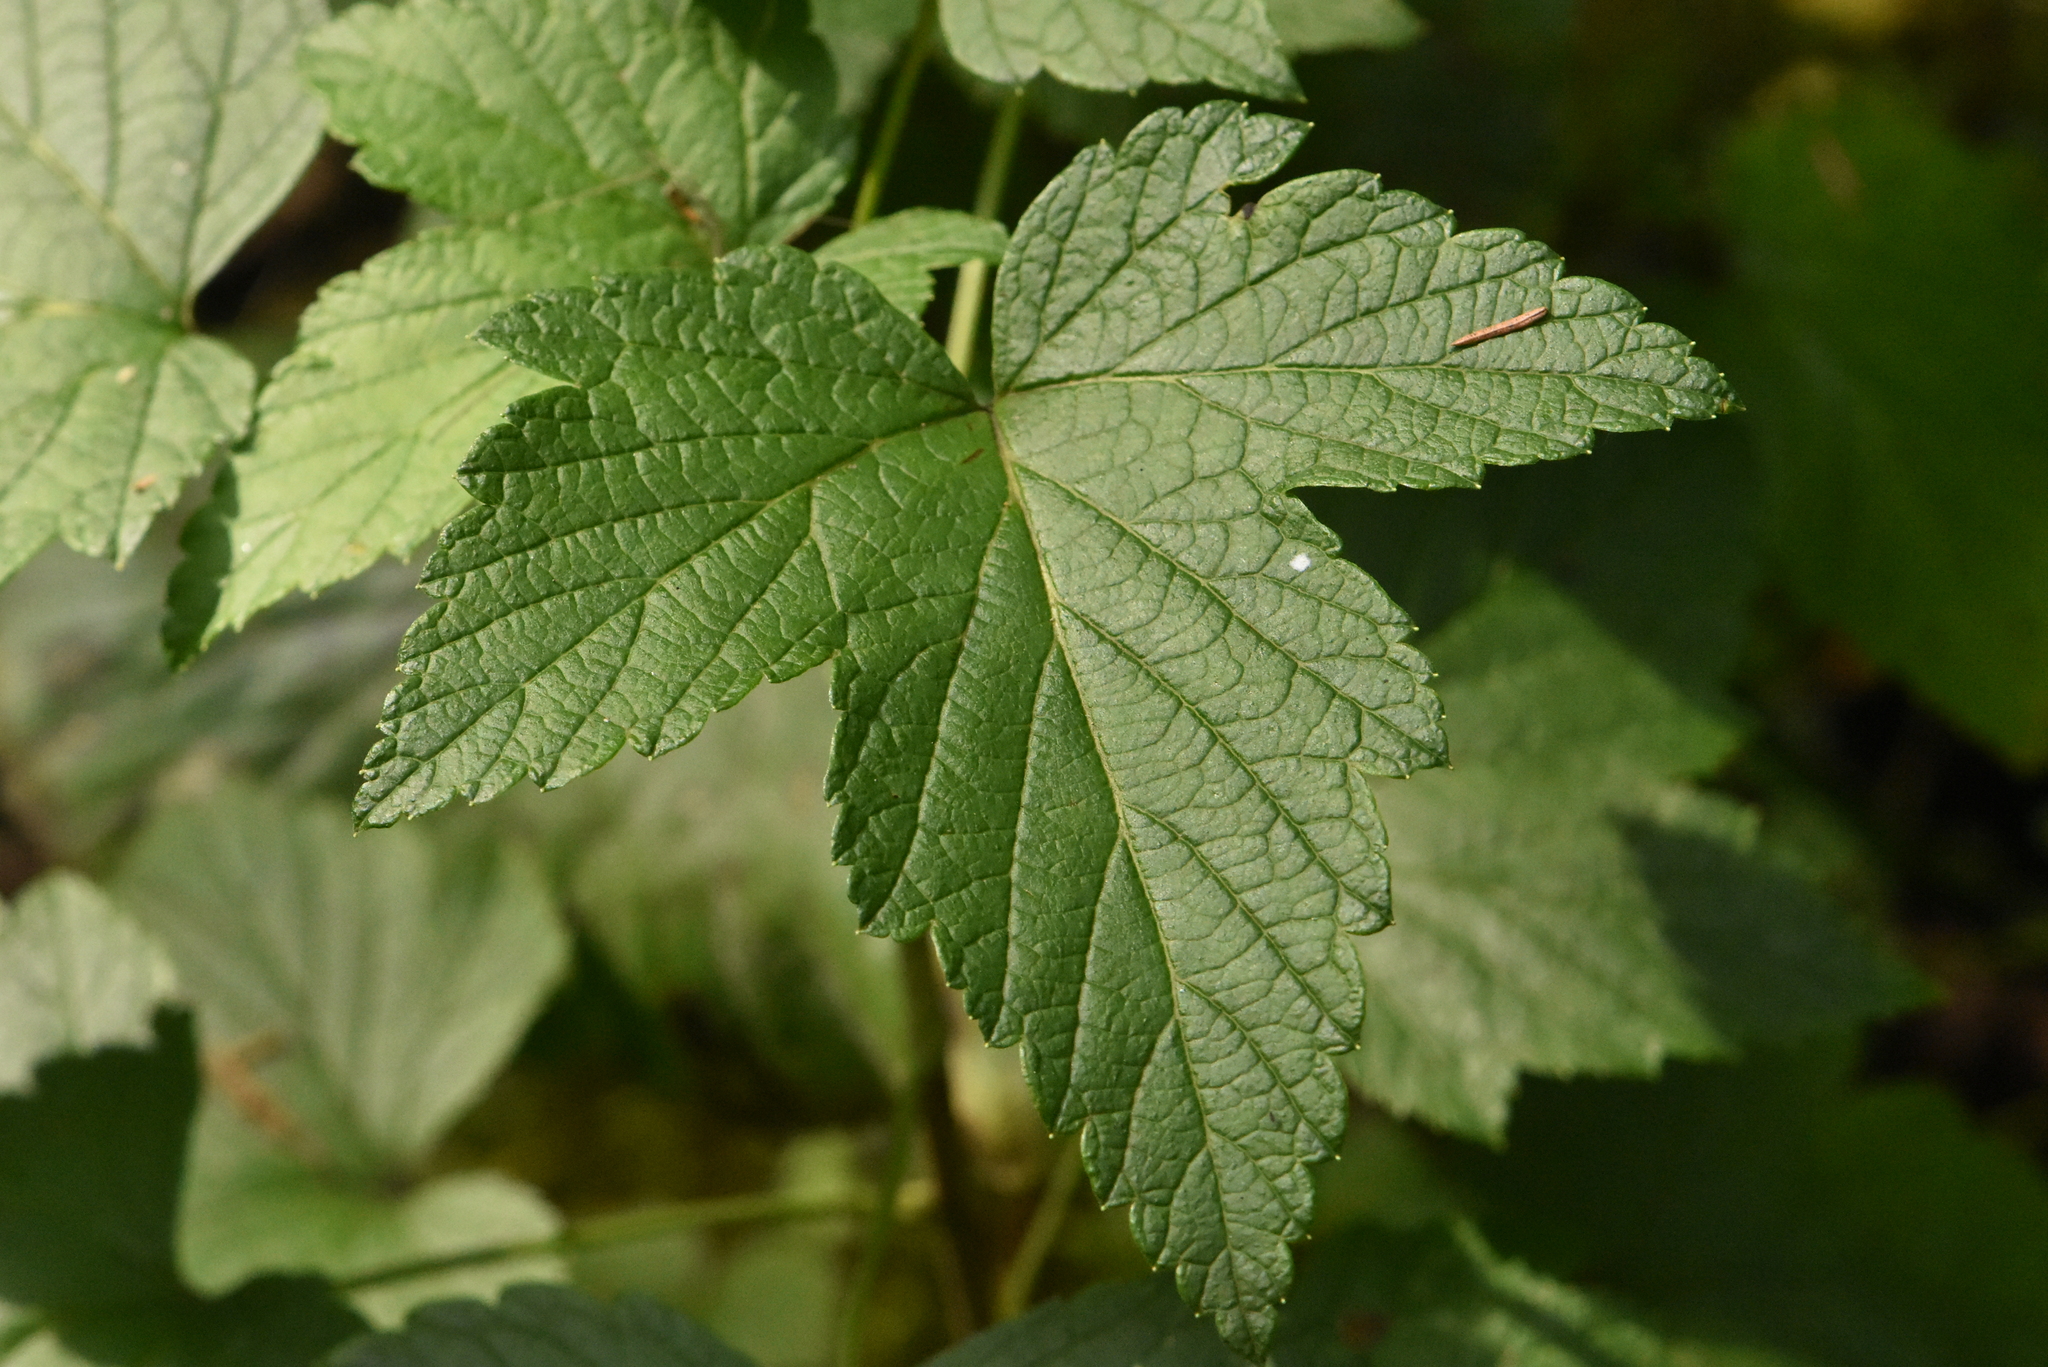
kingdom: Plantae
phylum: Tracheophyta
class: Magnoliopsida
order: Saxifragales
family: Grossulariaceae
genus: Ribes
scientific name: Ribes nigrum
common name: Black currant
